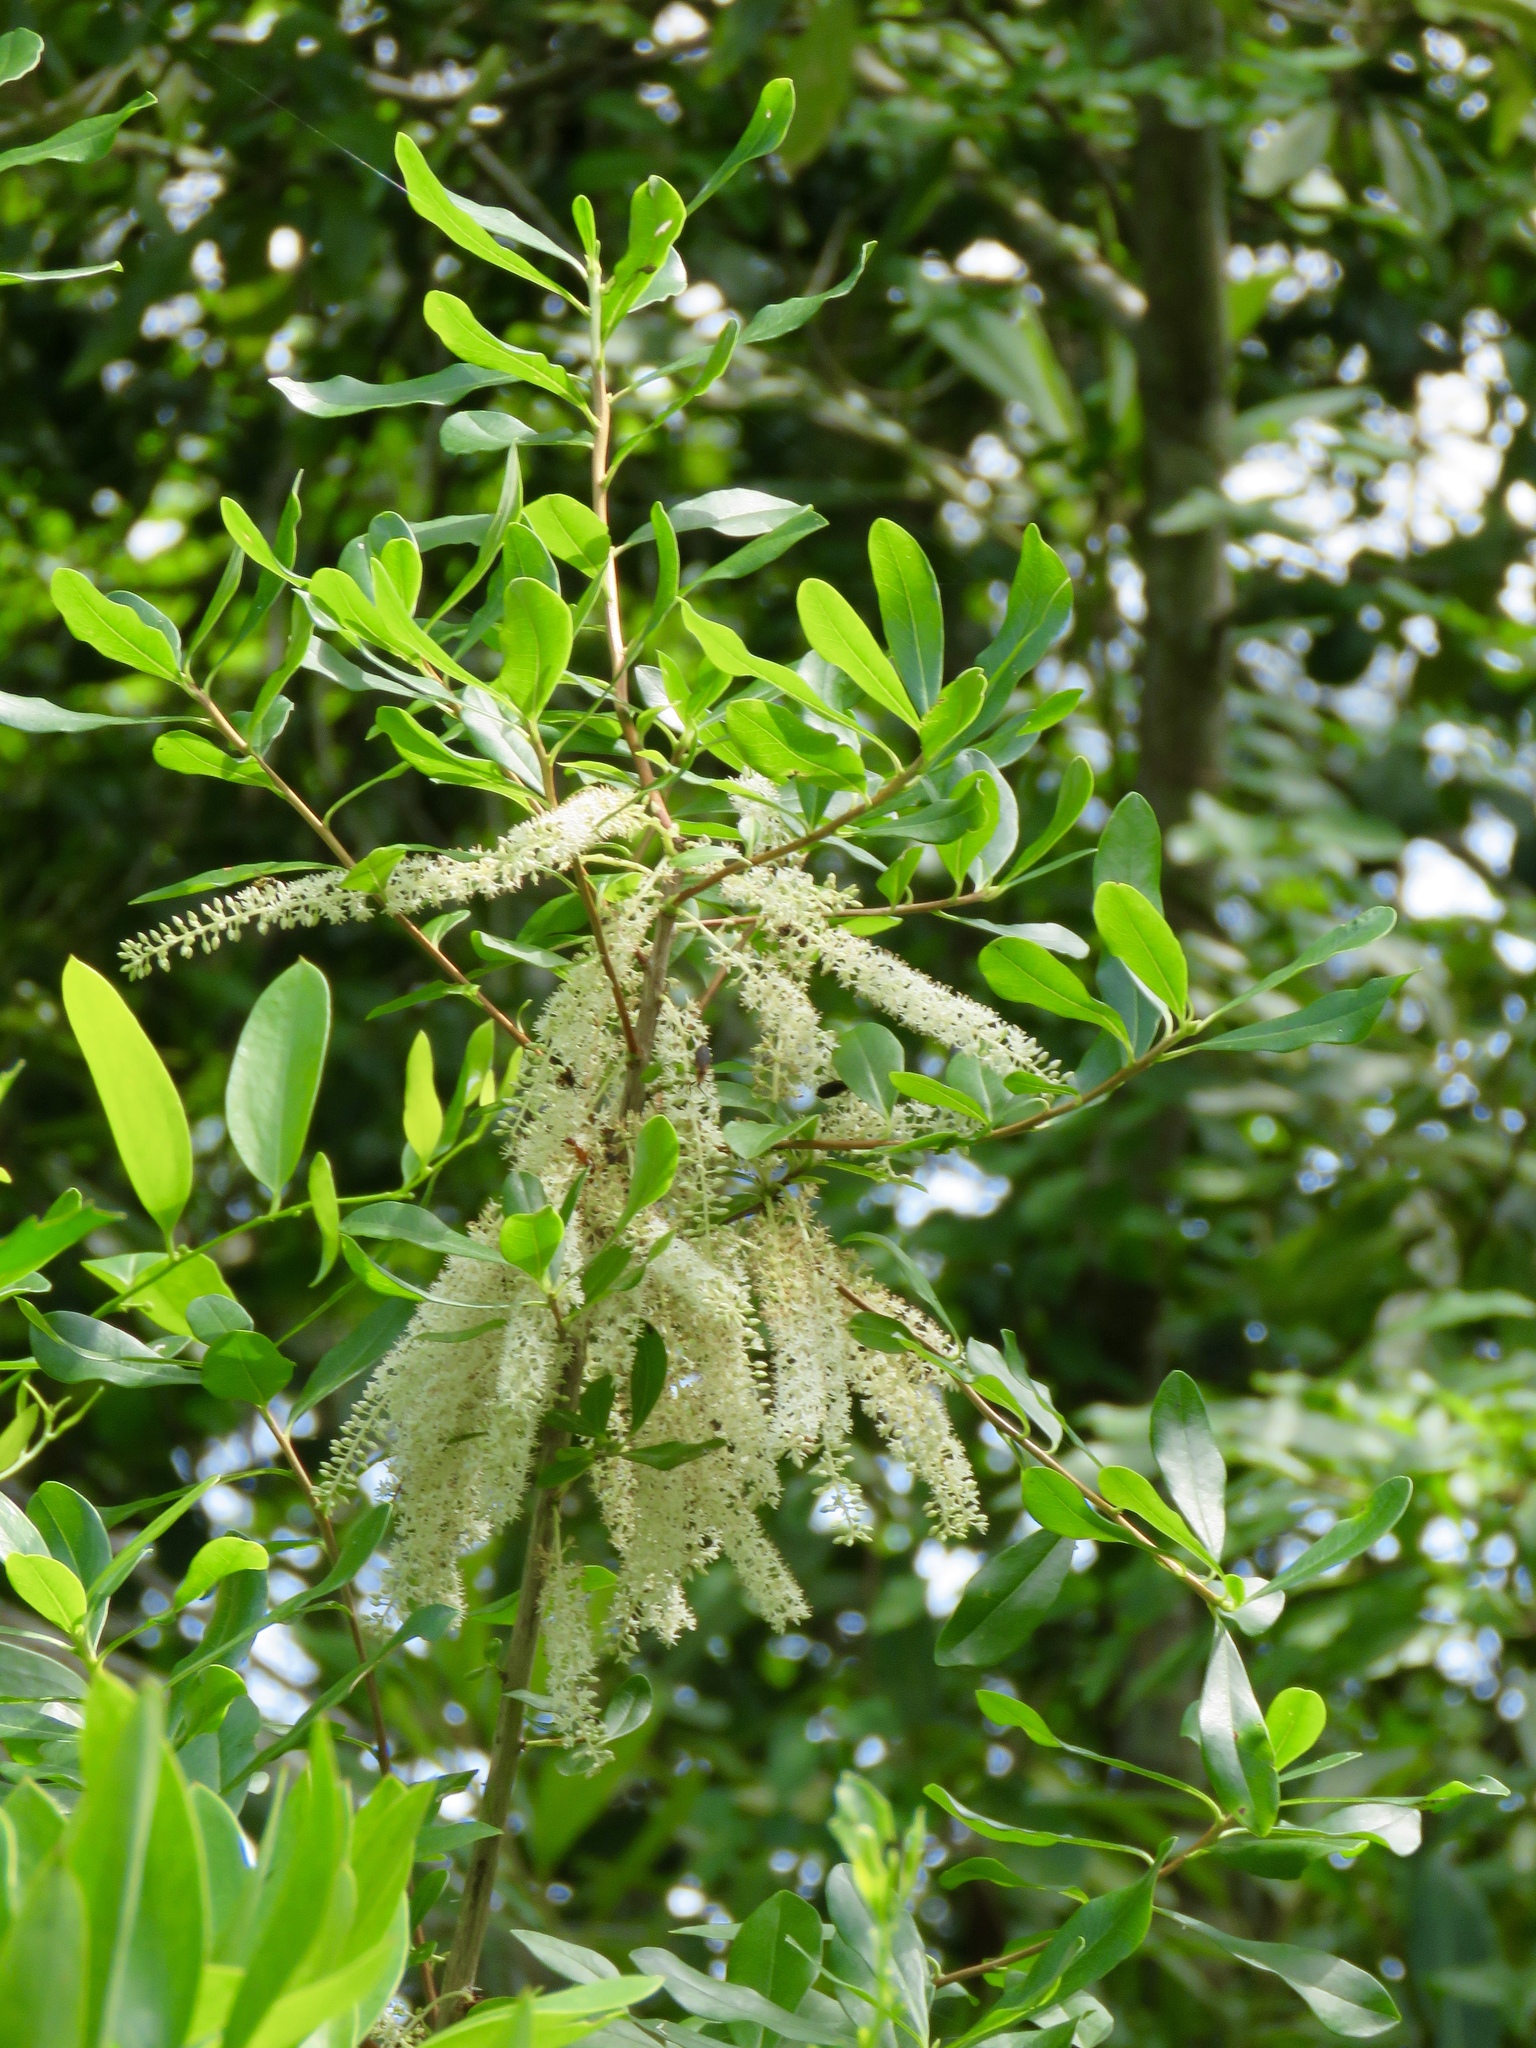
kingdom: Plantae
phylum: Tracheophyta
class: Magnoliopsida
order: Ericales
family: Cyrillaceae
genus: Cyrilla
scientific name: Cyrilla racemiflora
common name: Black titi
